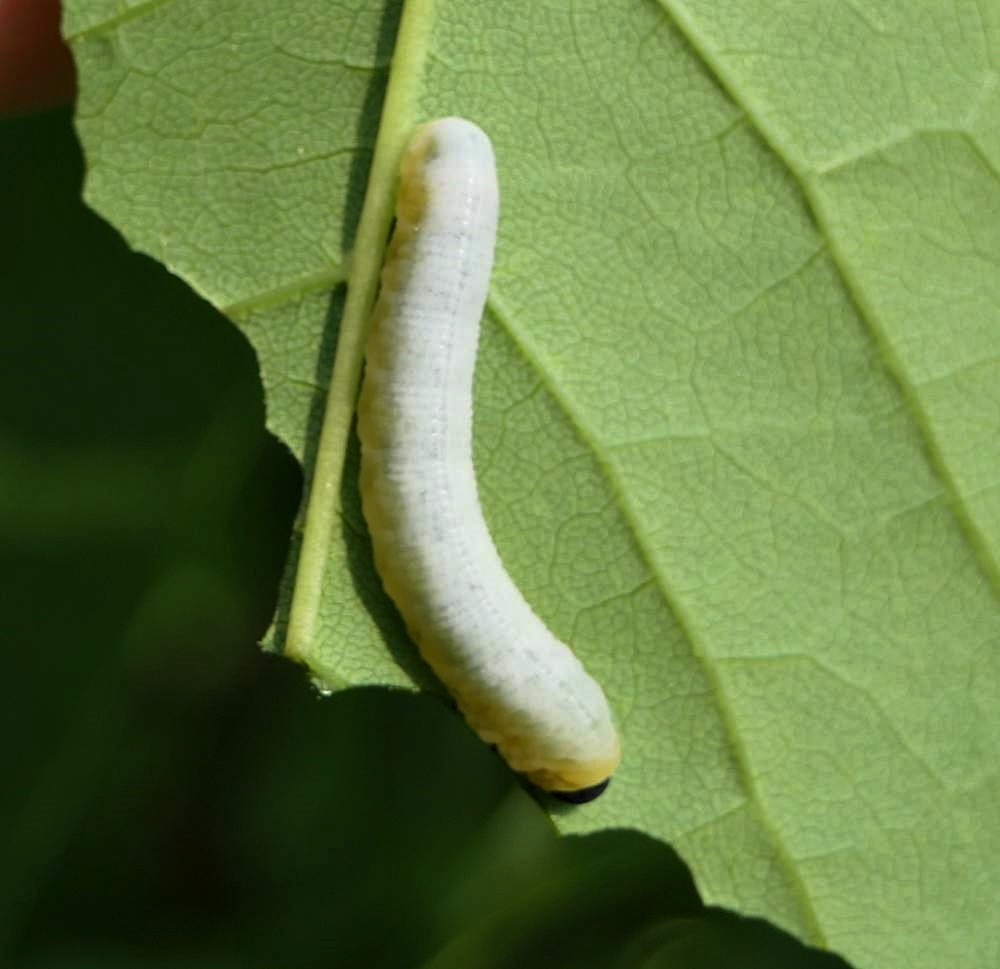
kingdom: Animalia
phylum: Arthropoda
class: Insecta
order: Hymenoptera
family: Tenthredinidae
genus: Tethida
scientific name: Tethida barda
